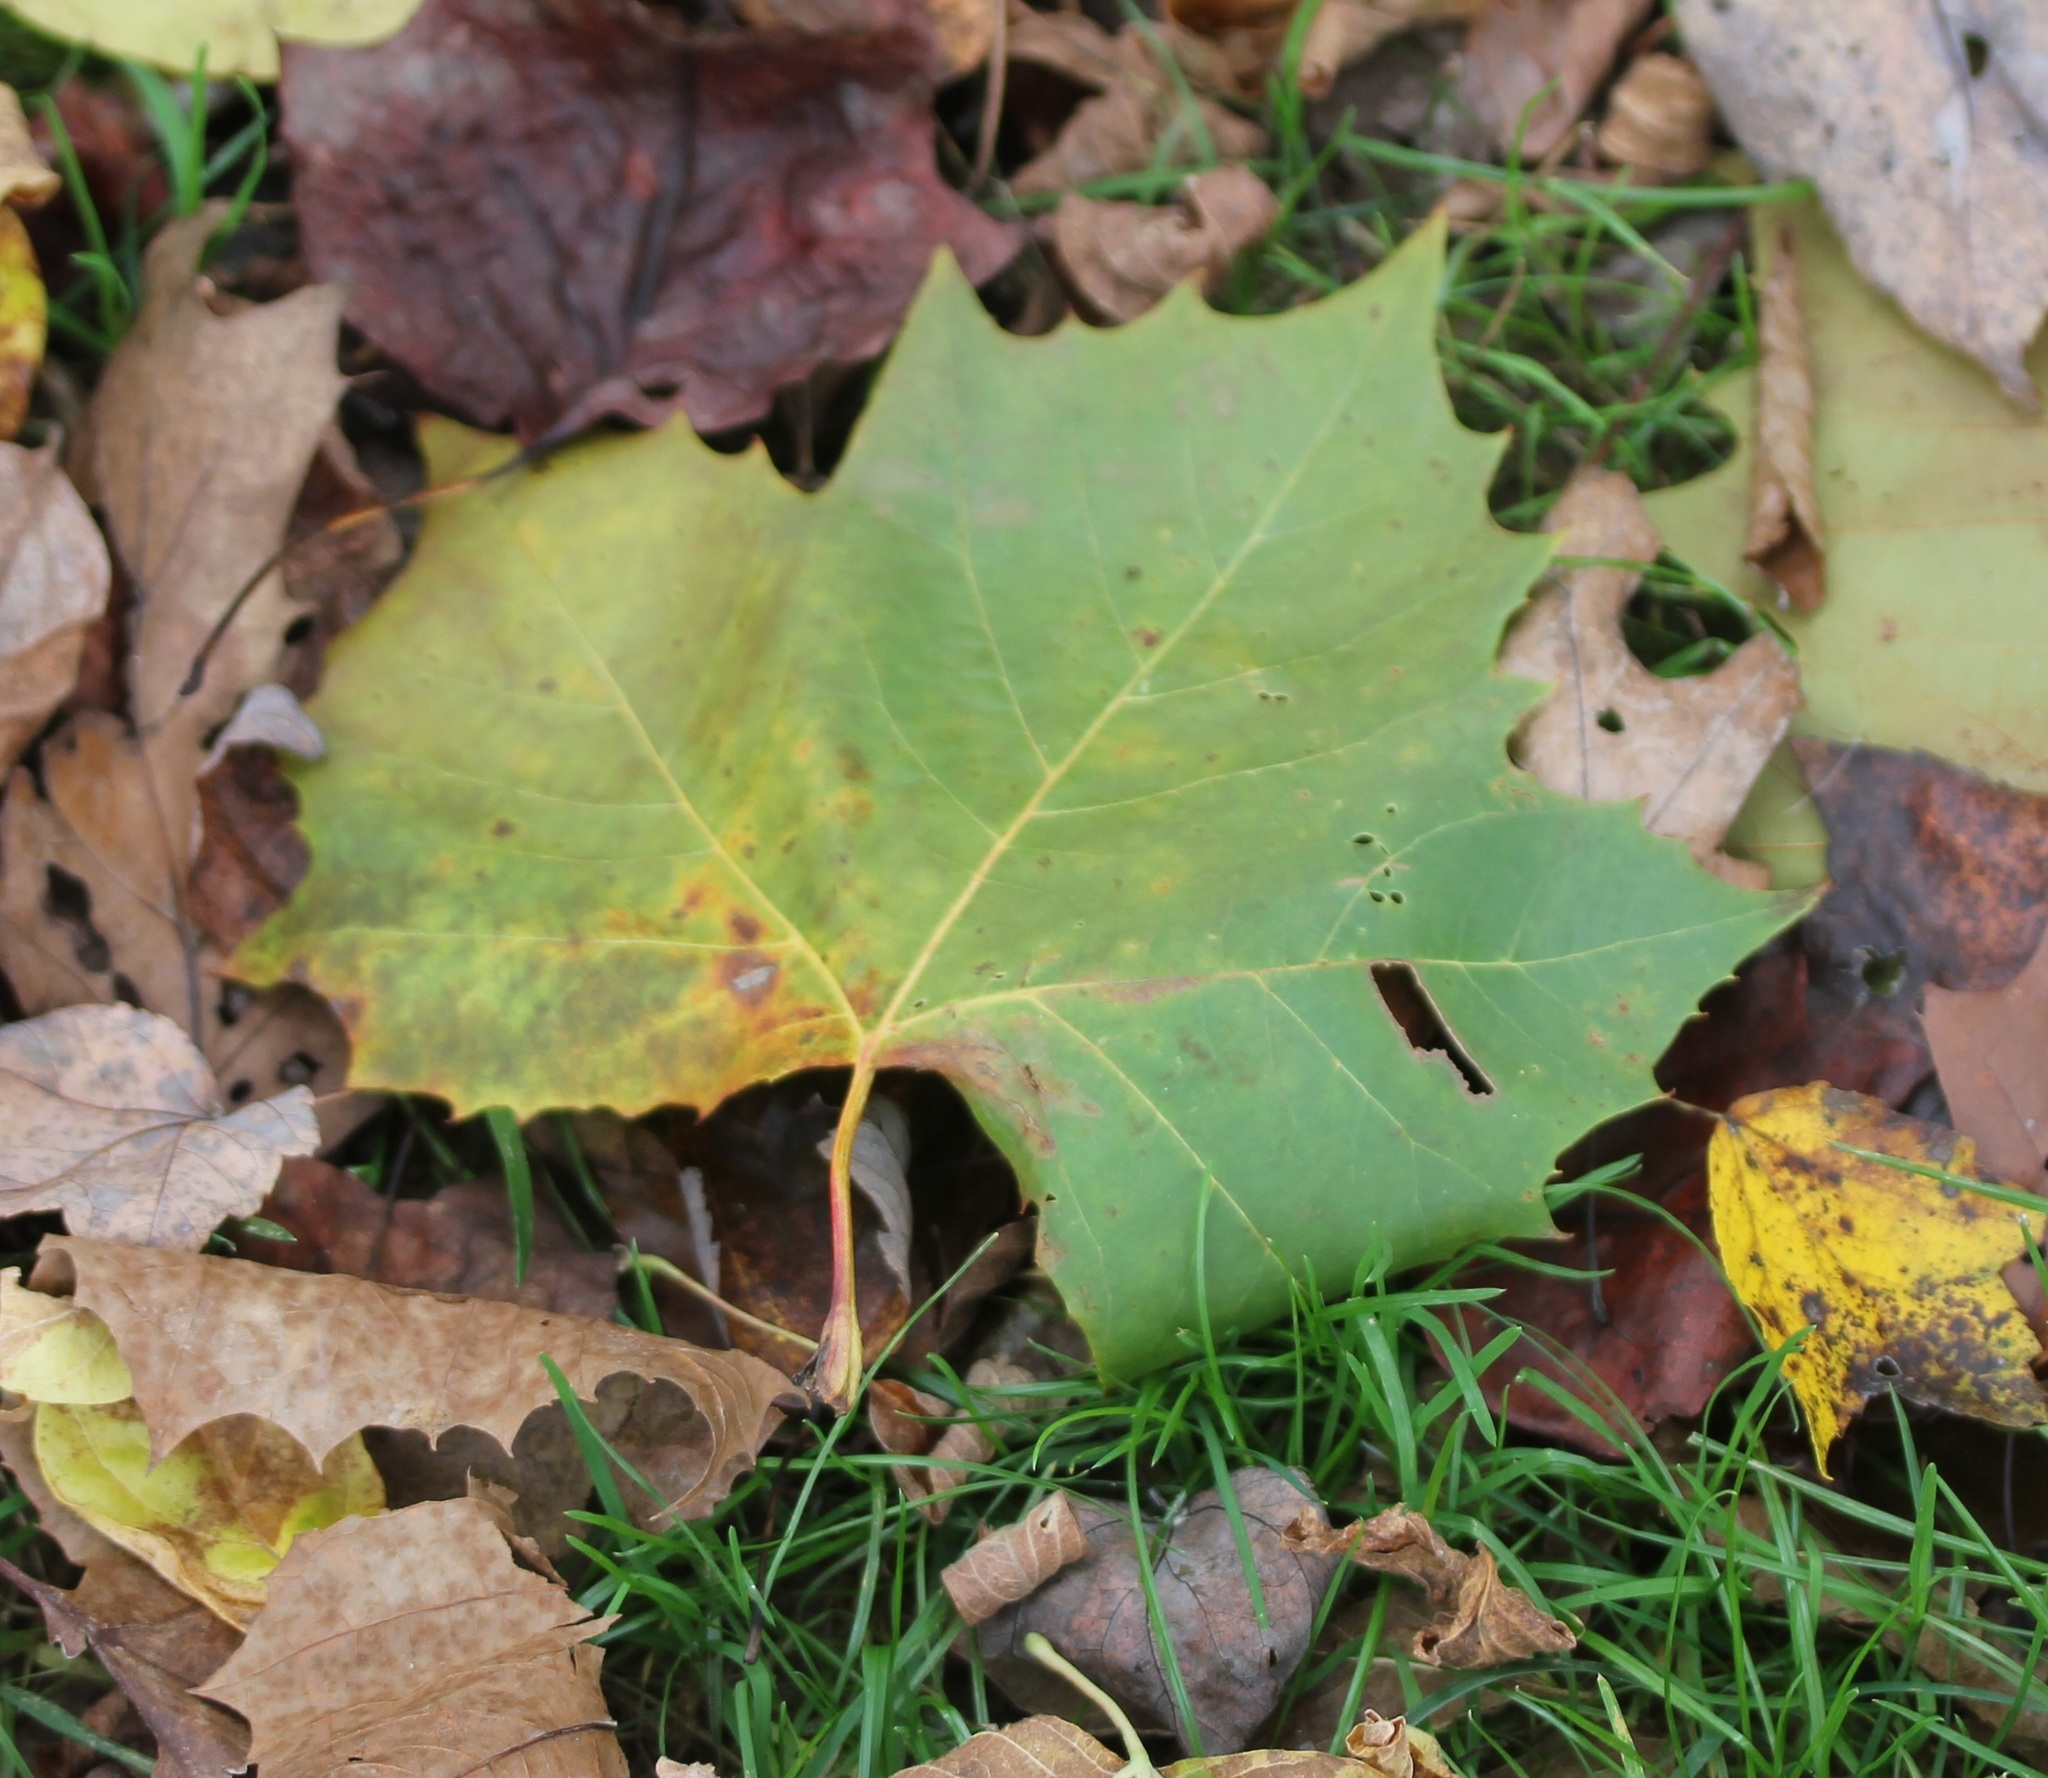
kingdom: Plantae
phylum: Tracheophyta
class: Magnoliopsida
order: Proteales
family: Platanaceae
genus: Platanus
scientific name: Platanus occidentalis
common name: American sycamore
